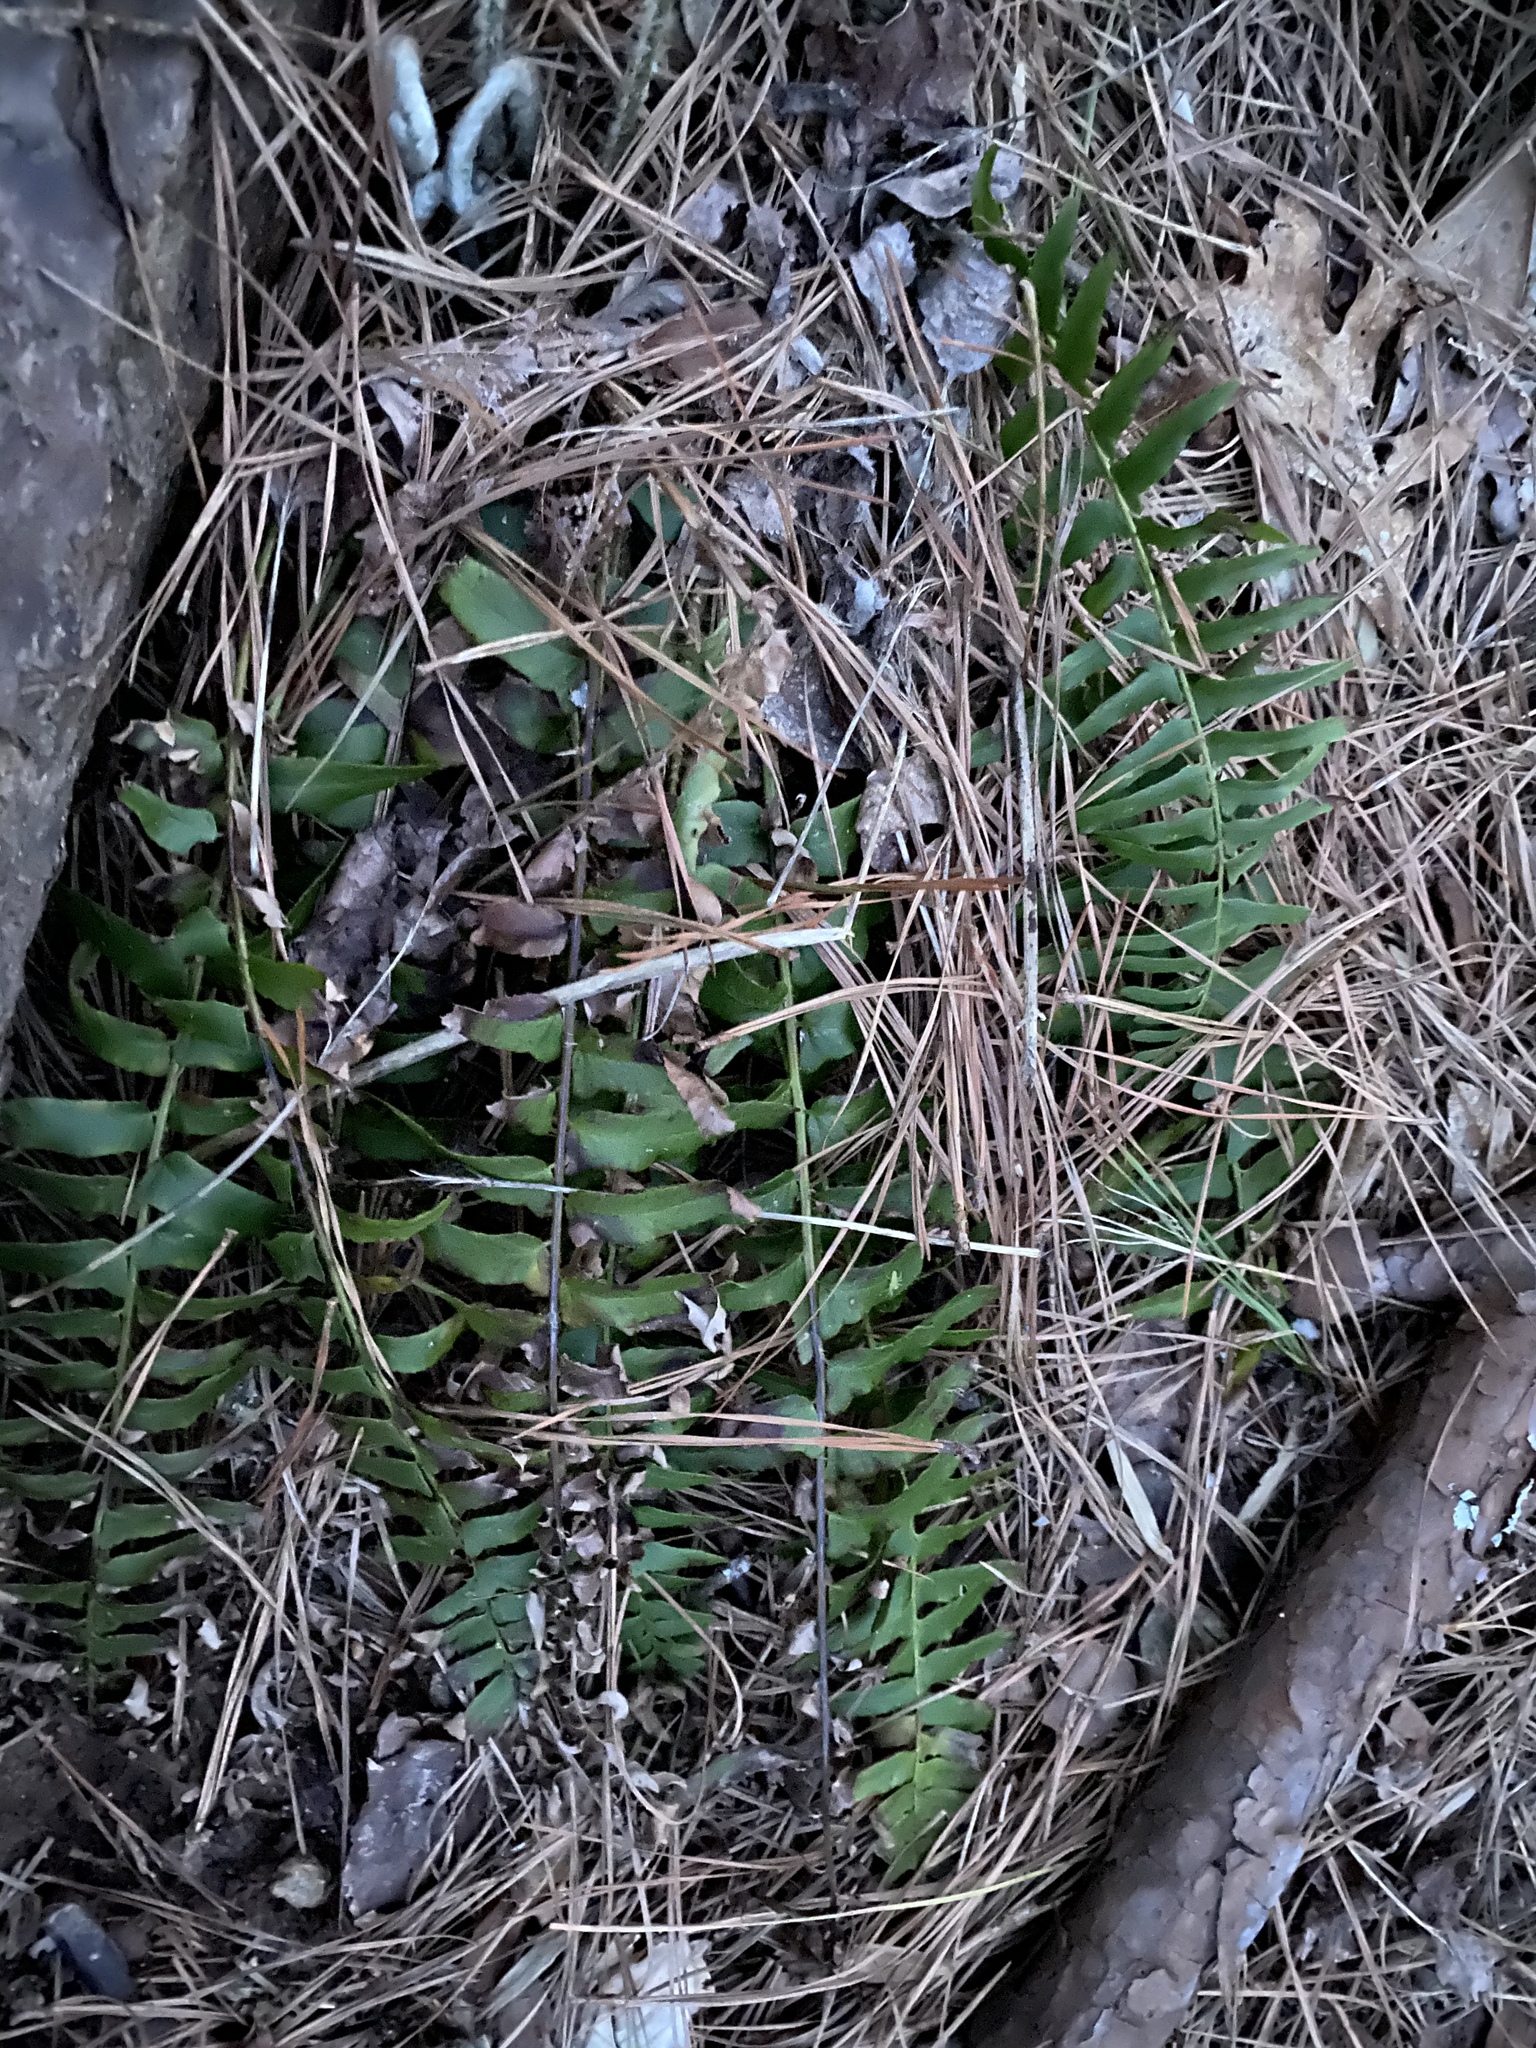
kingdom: Plantae
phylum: Tracheophyta
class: Polypodiopsida
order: Polypodiales
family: Dryopteridaceae
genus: Polystichum
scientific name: Polystichum acrostichoides
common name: Christmas fern
